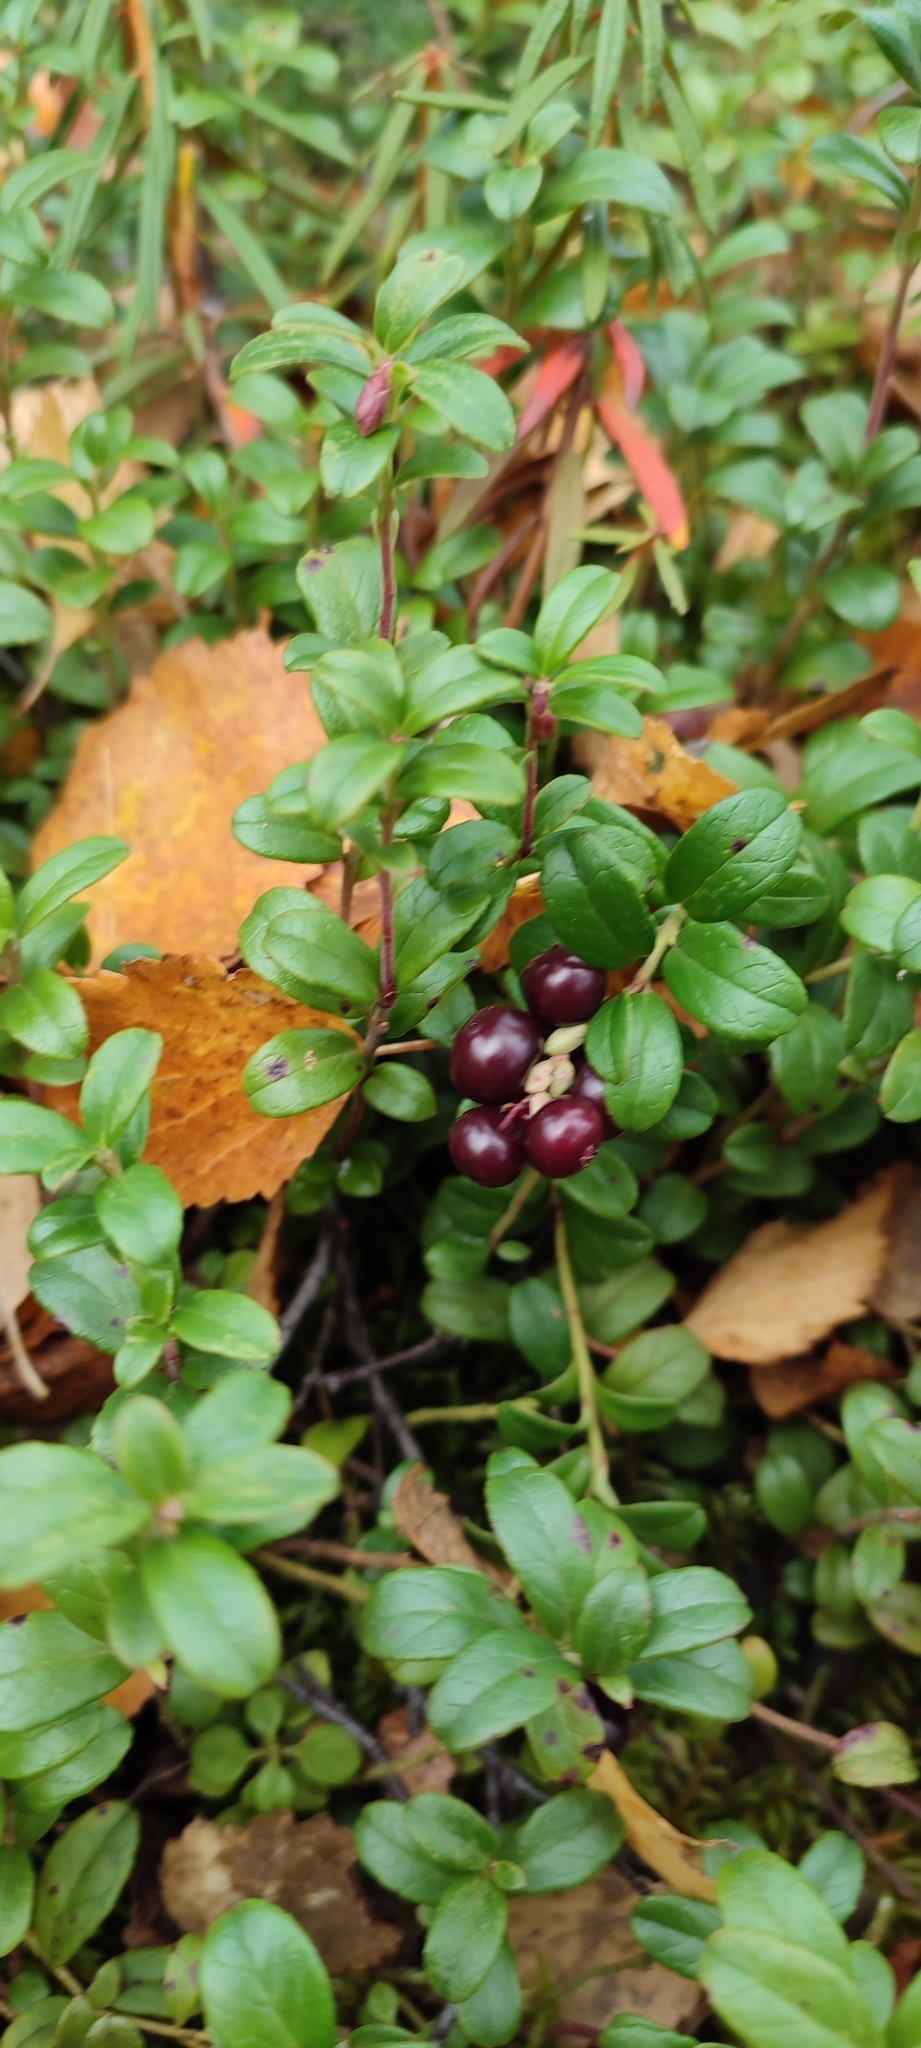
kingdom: Plantae
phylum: Tracheophyta
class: Magnoliopsida
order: Ericales
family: Ericaceae
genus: Vaccinium
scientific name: Vaccinium vitis-idaea
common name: Cowberry
